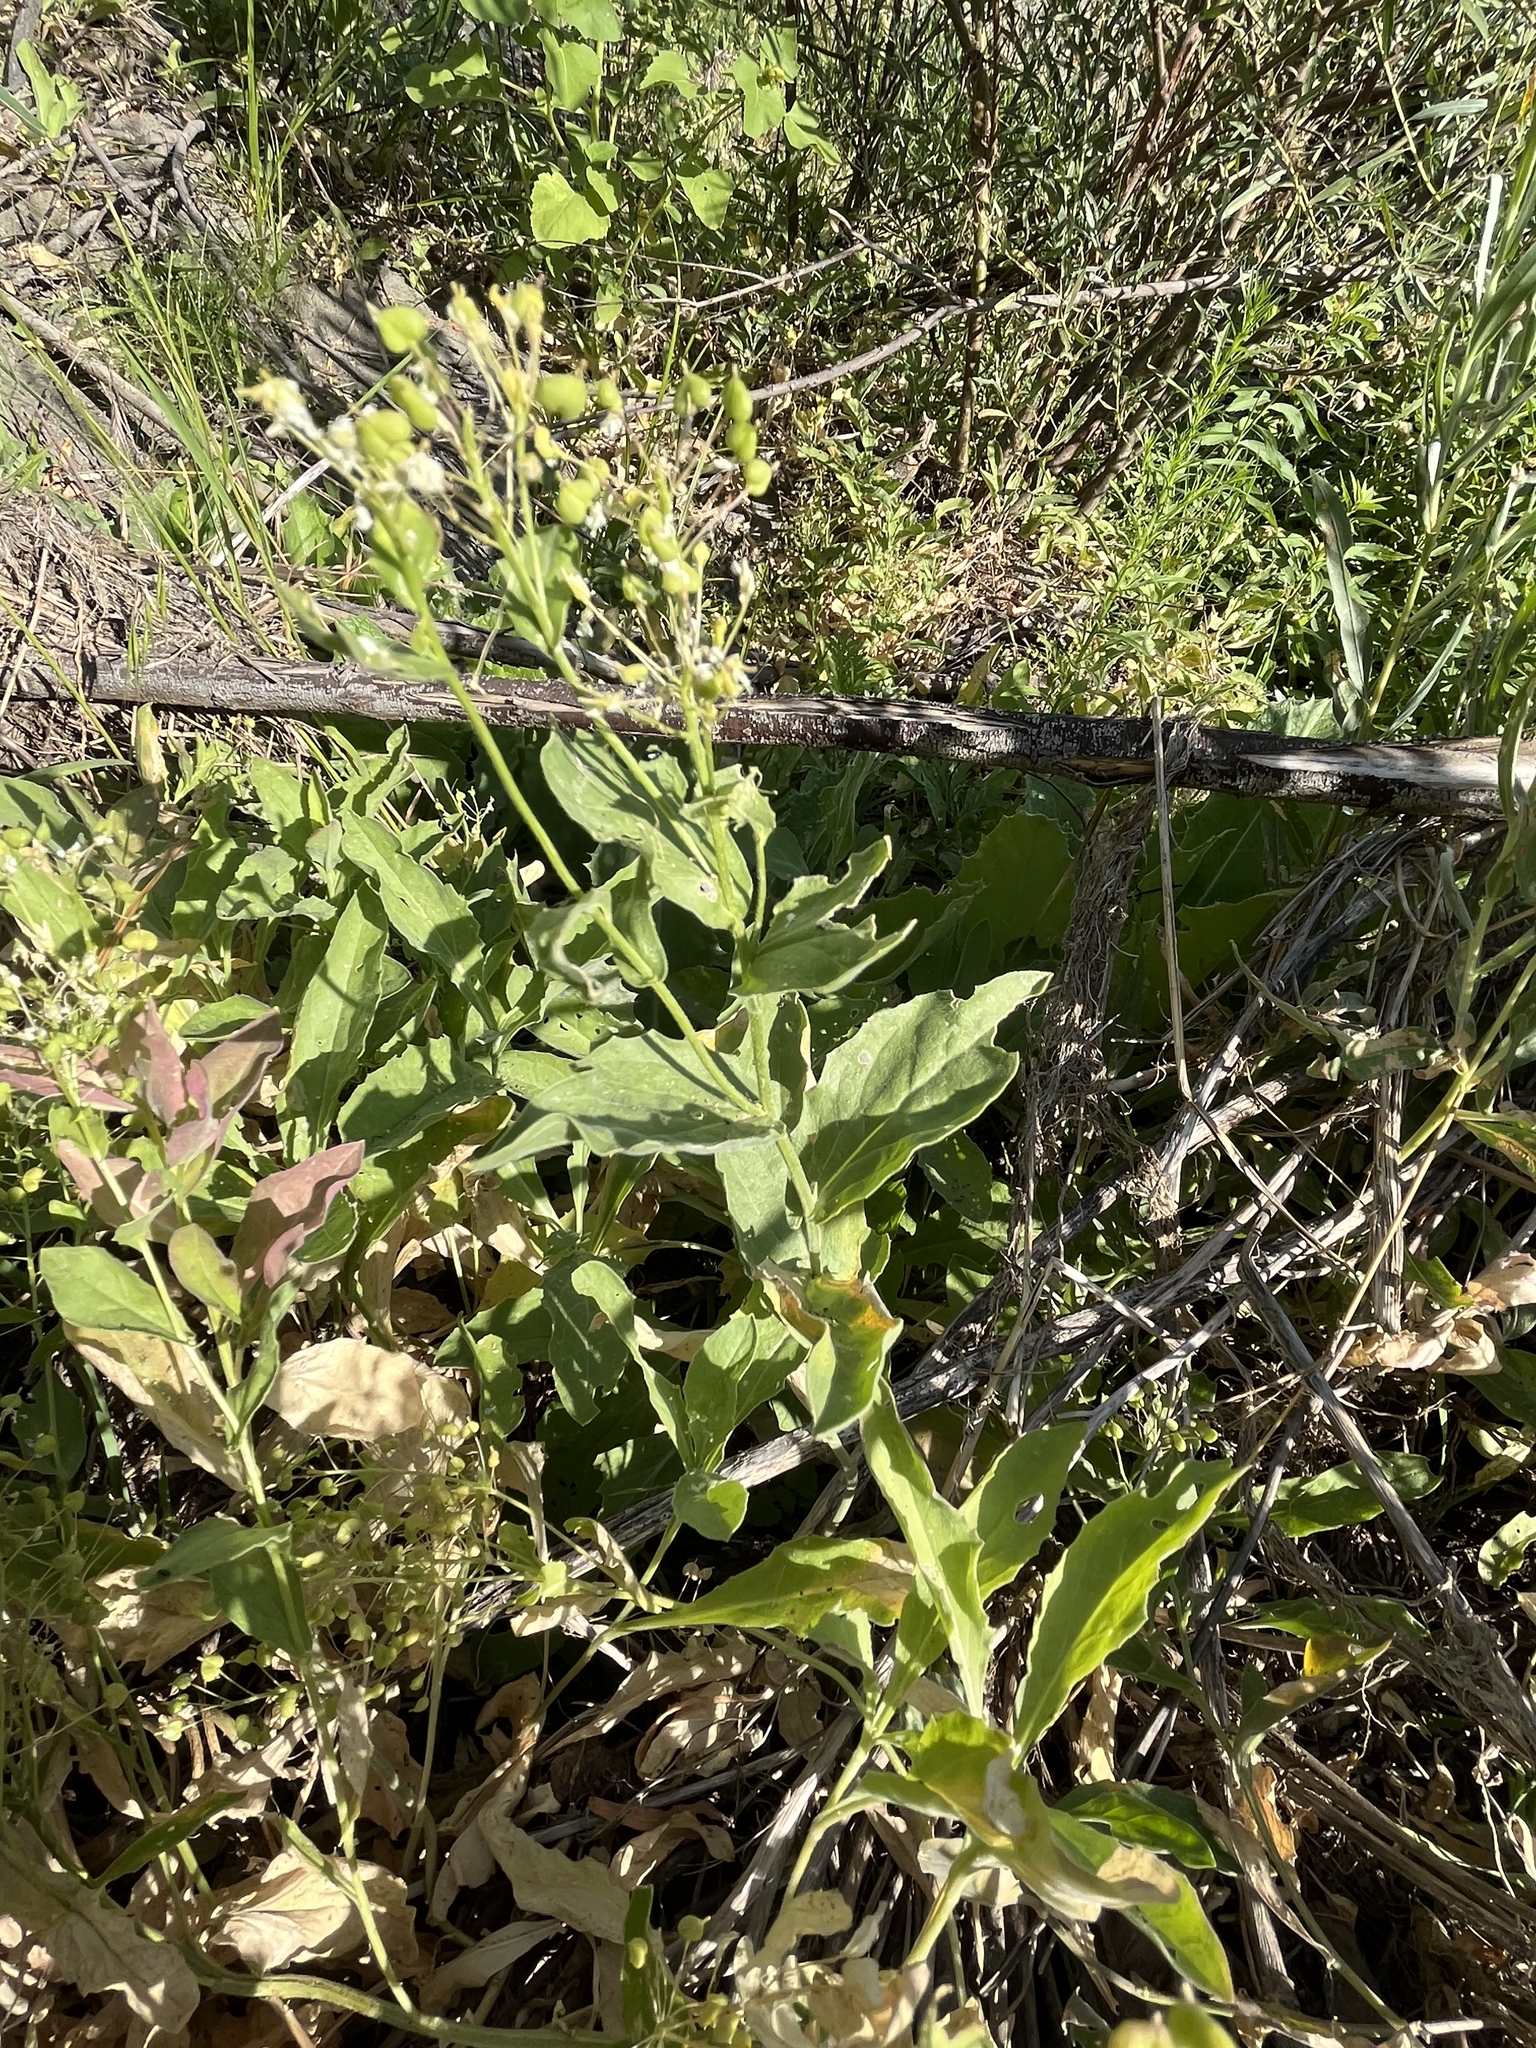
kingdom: Plantae
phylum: Tracheophyta
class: Magnoliopsida
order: Brassicales
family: Brassicaceae
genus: Lepidium
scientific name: Lepidium draba
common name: Hoary cress
